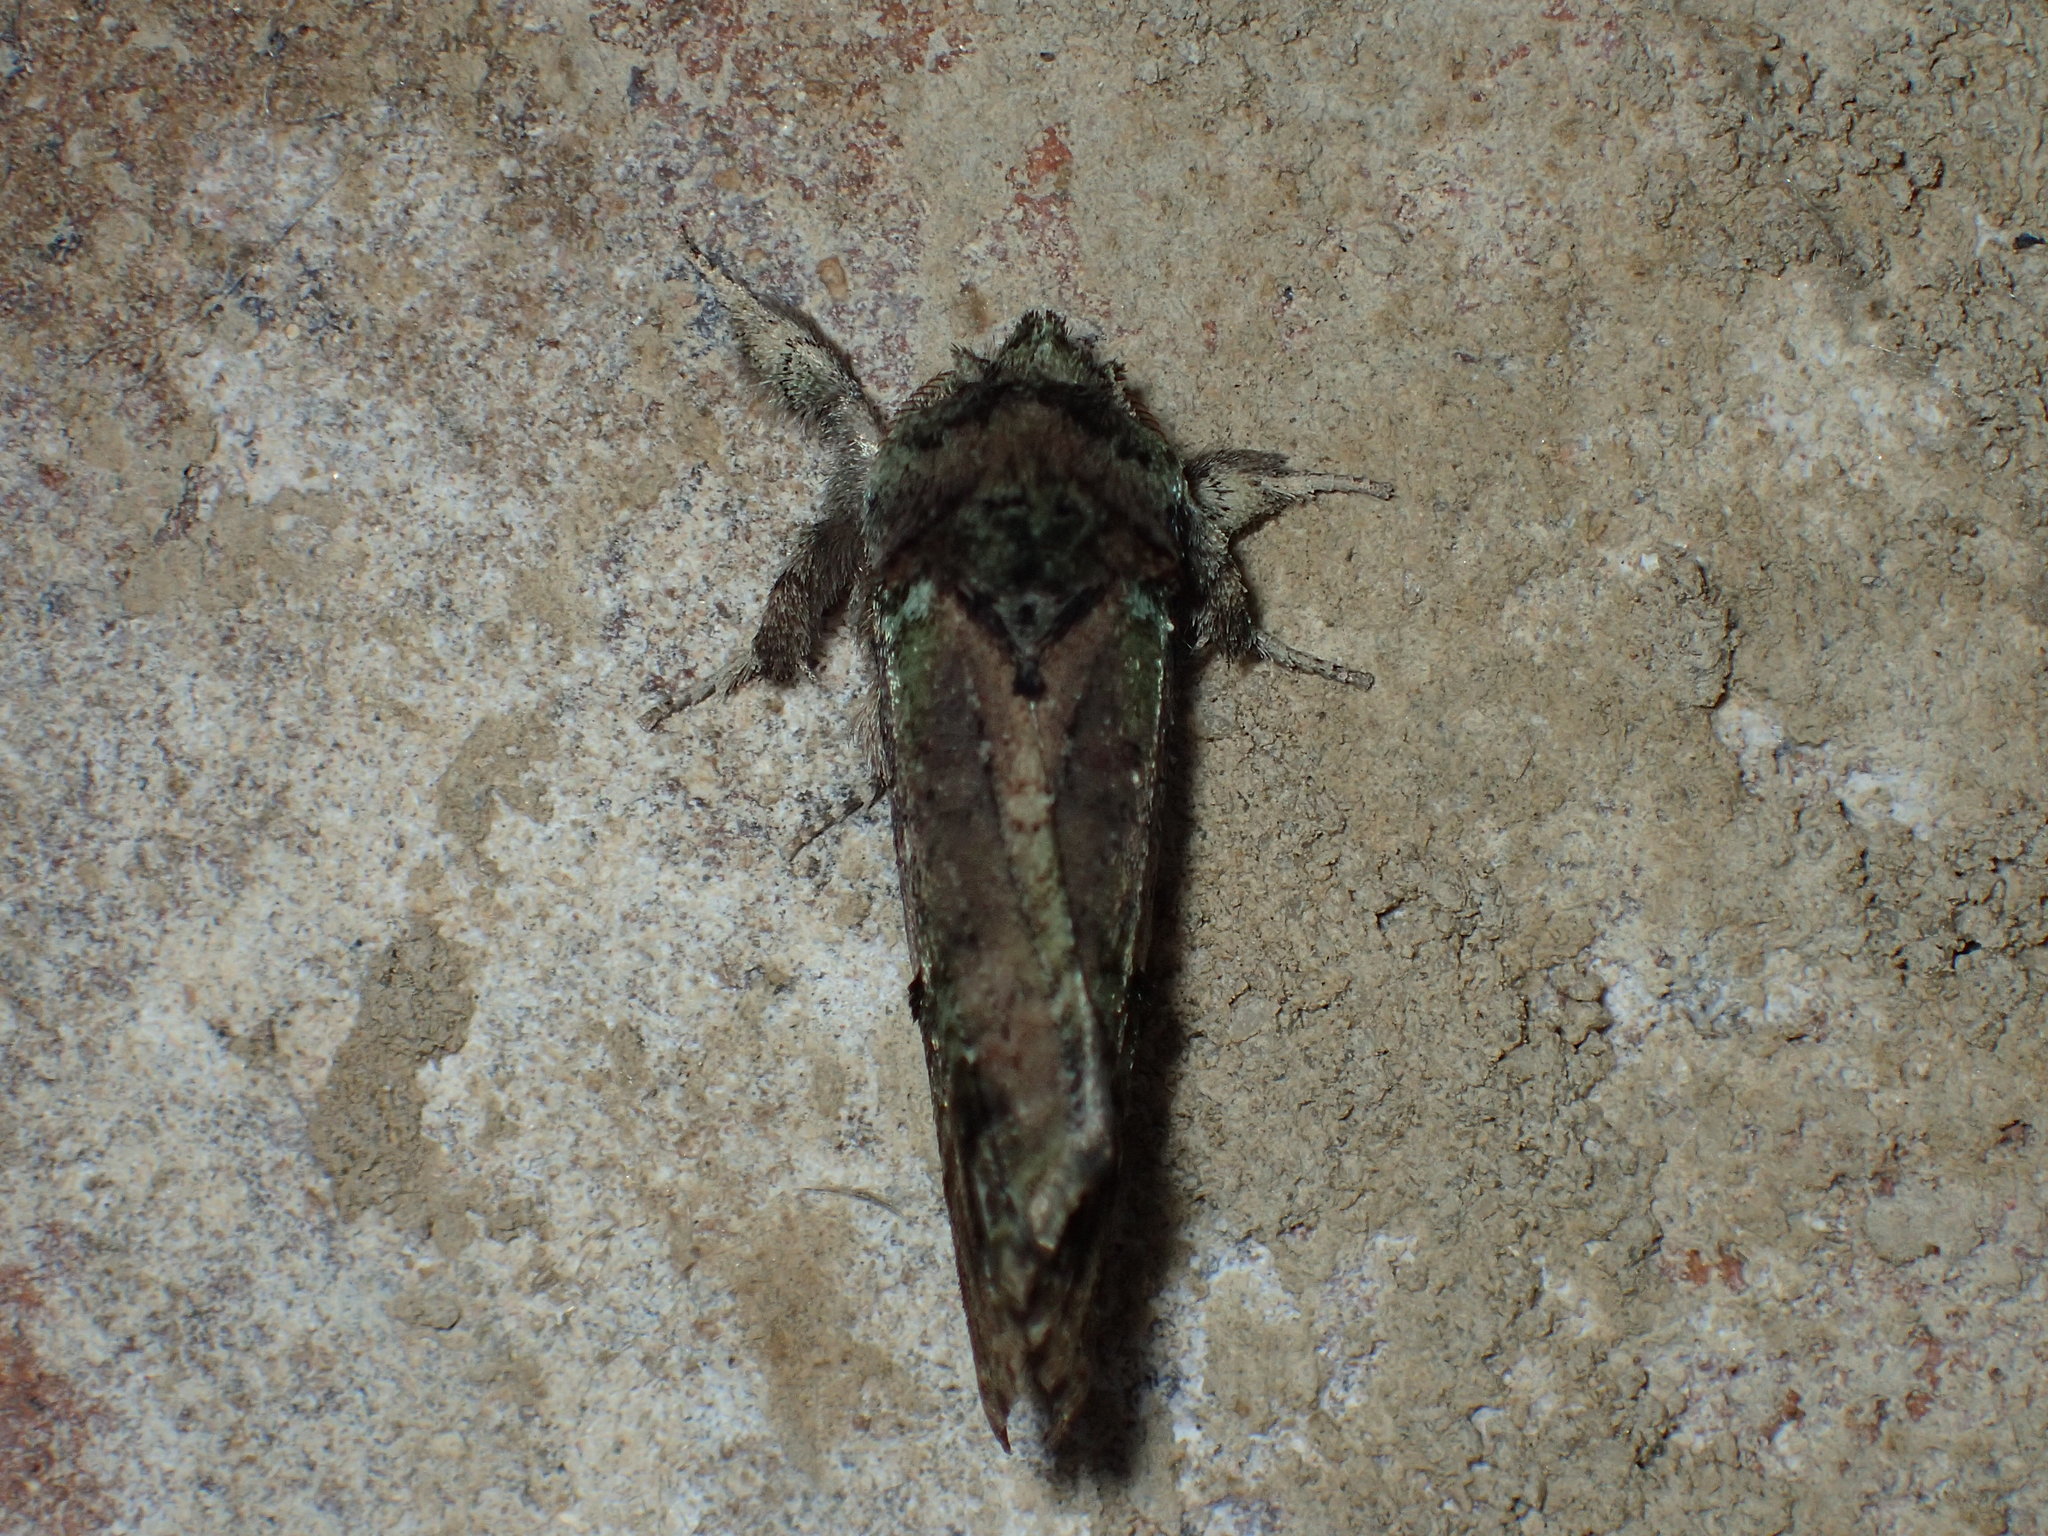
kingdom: Animalia
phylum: Arthropoda
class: Insecta
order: Lepidoptera
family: Notodontidae
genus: Schizura
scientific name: Schizura
